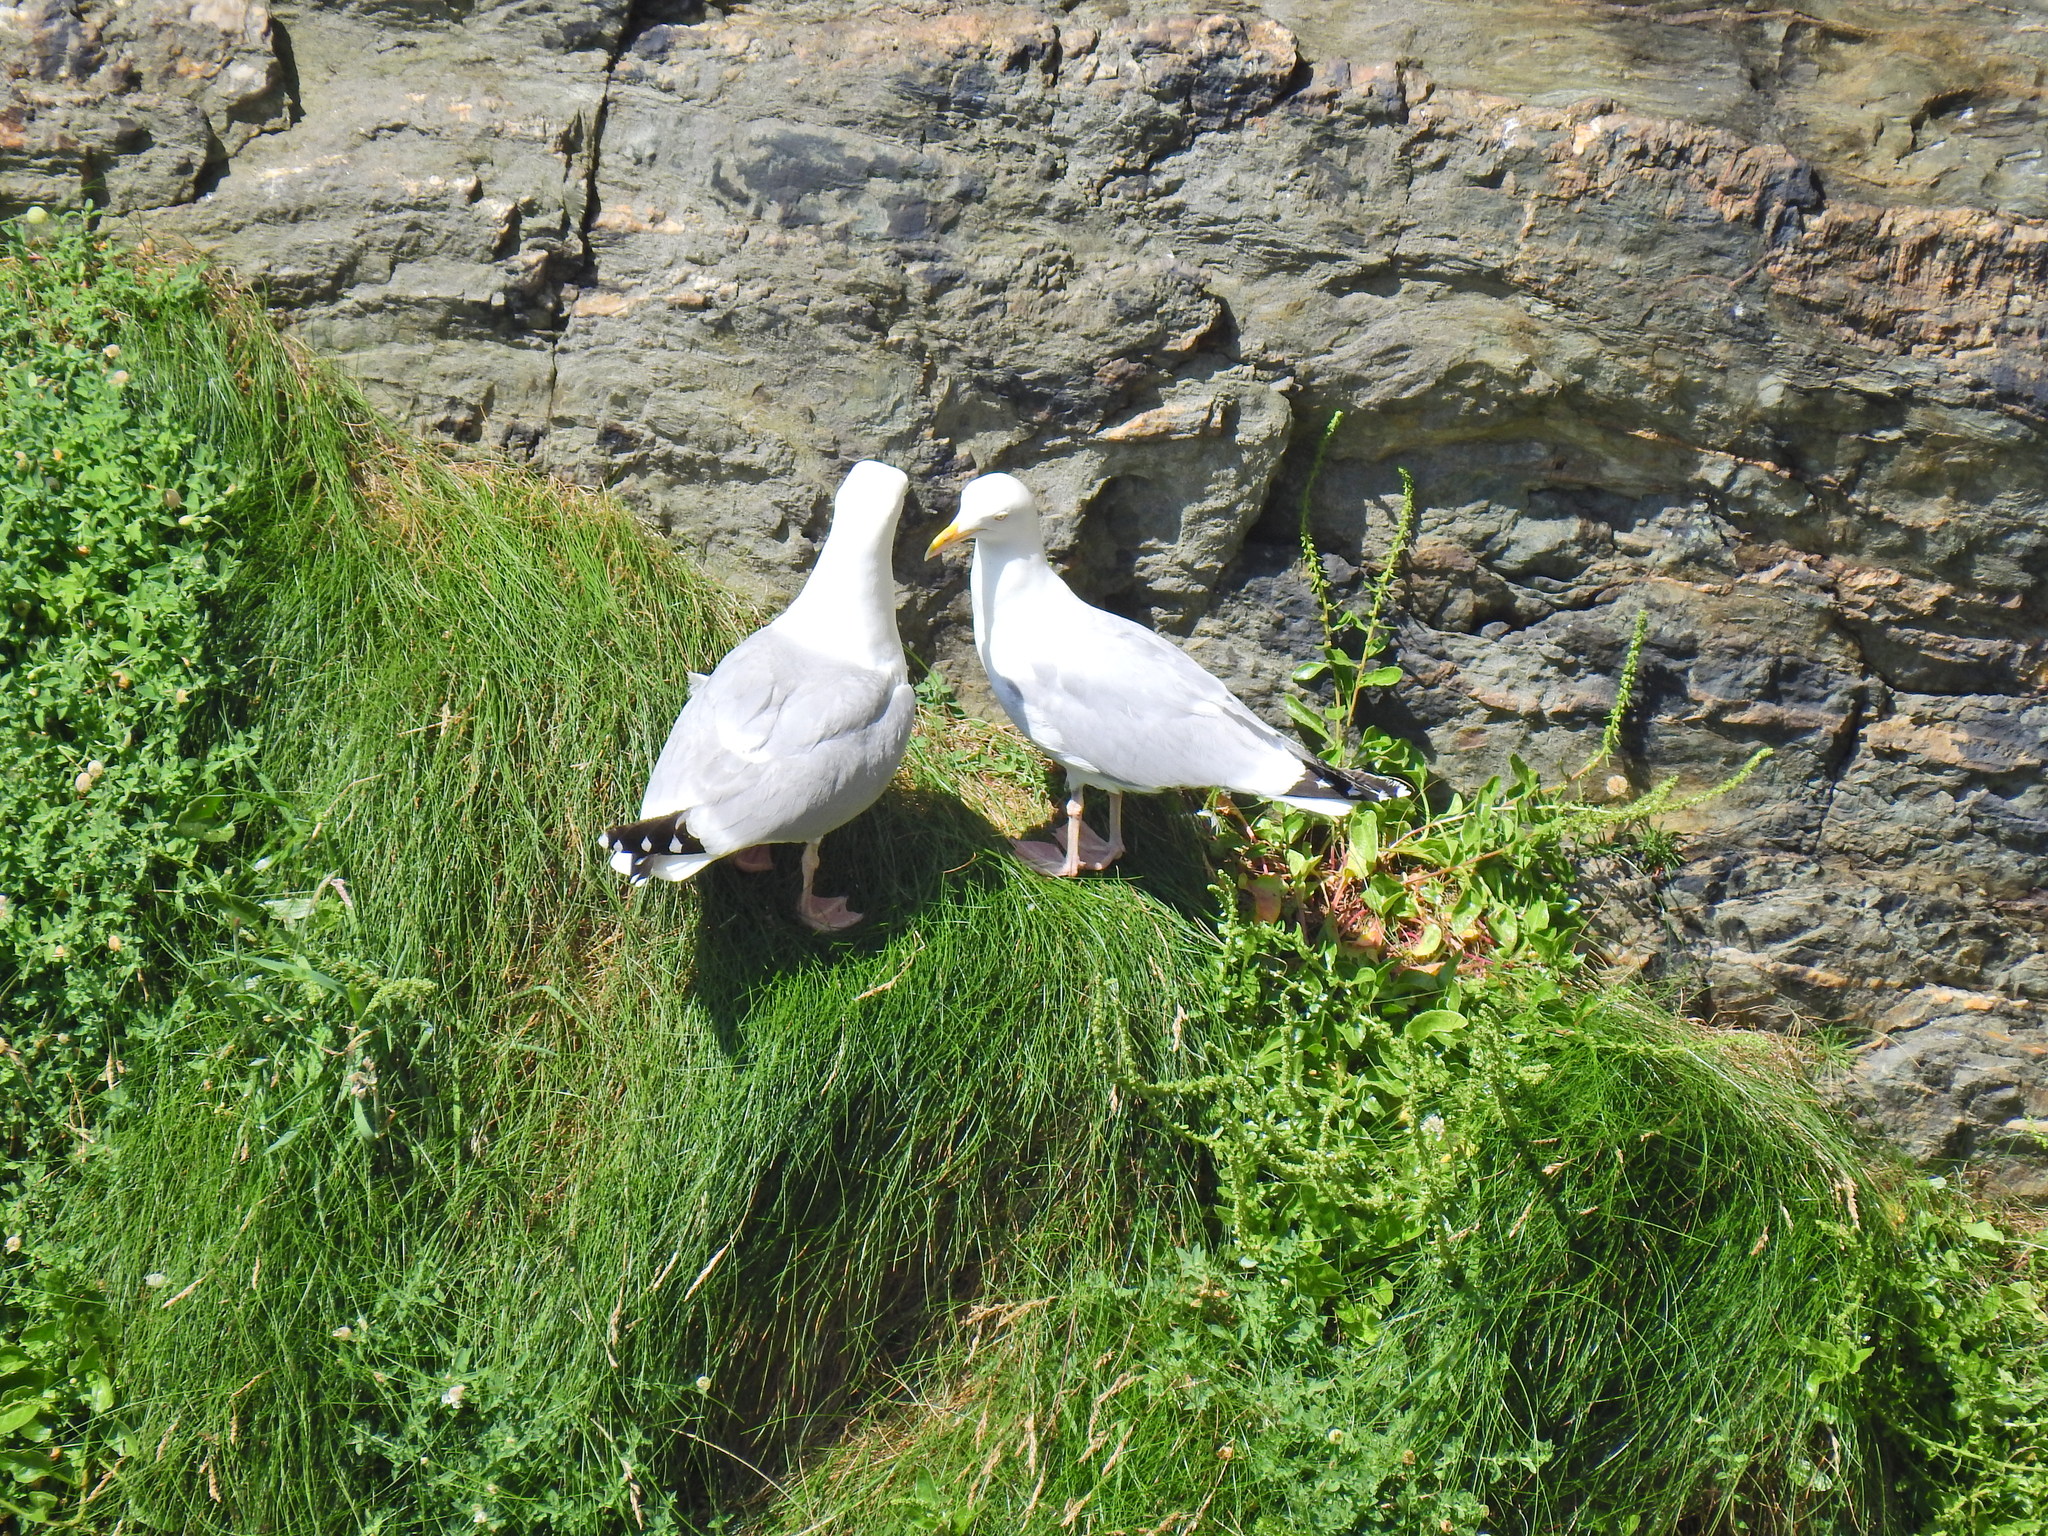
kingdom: Animalia
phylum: Chordata
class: Aves
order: Charadriiformes
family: Laridae
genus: Larus
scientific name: Larus argentatus
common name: Herring gull
